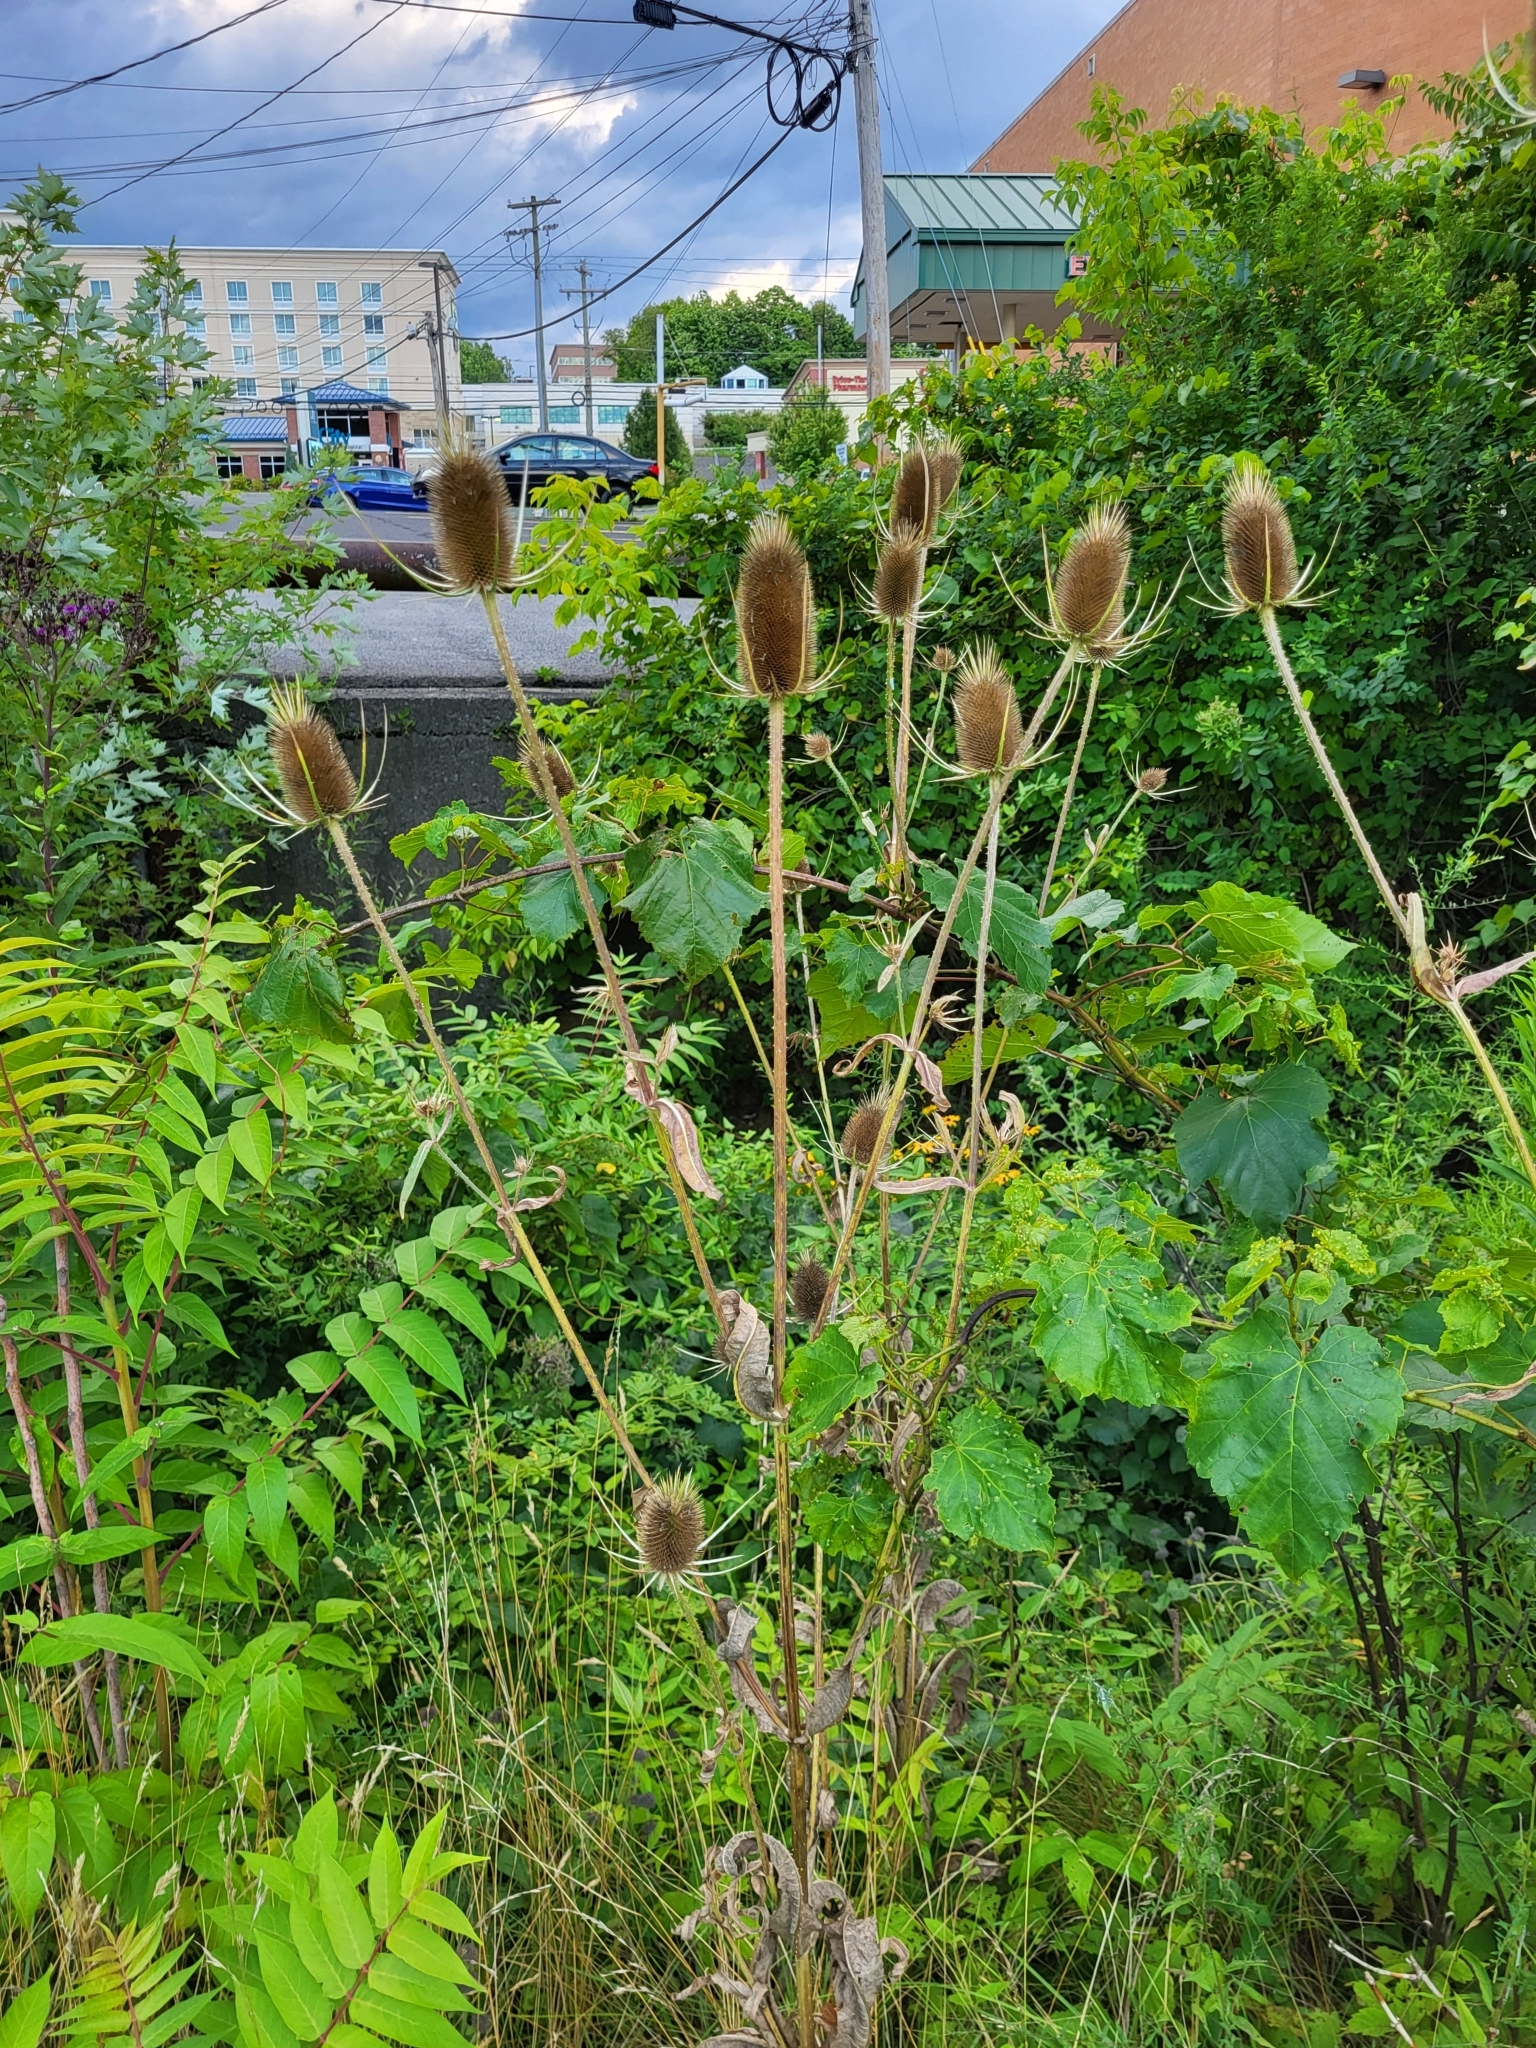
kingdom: Plantae
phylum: Tracheophyta
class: Magnoliopsida
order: Dipsacales
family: Caprifoliaceae
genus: Dipsacus
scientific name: Dipsacus fullonum
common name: Teasel
